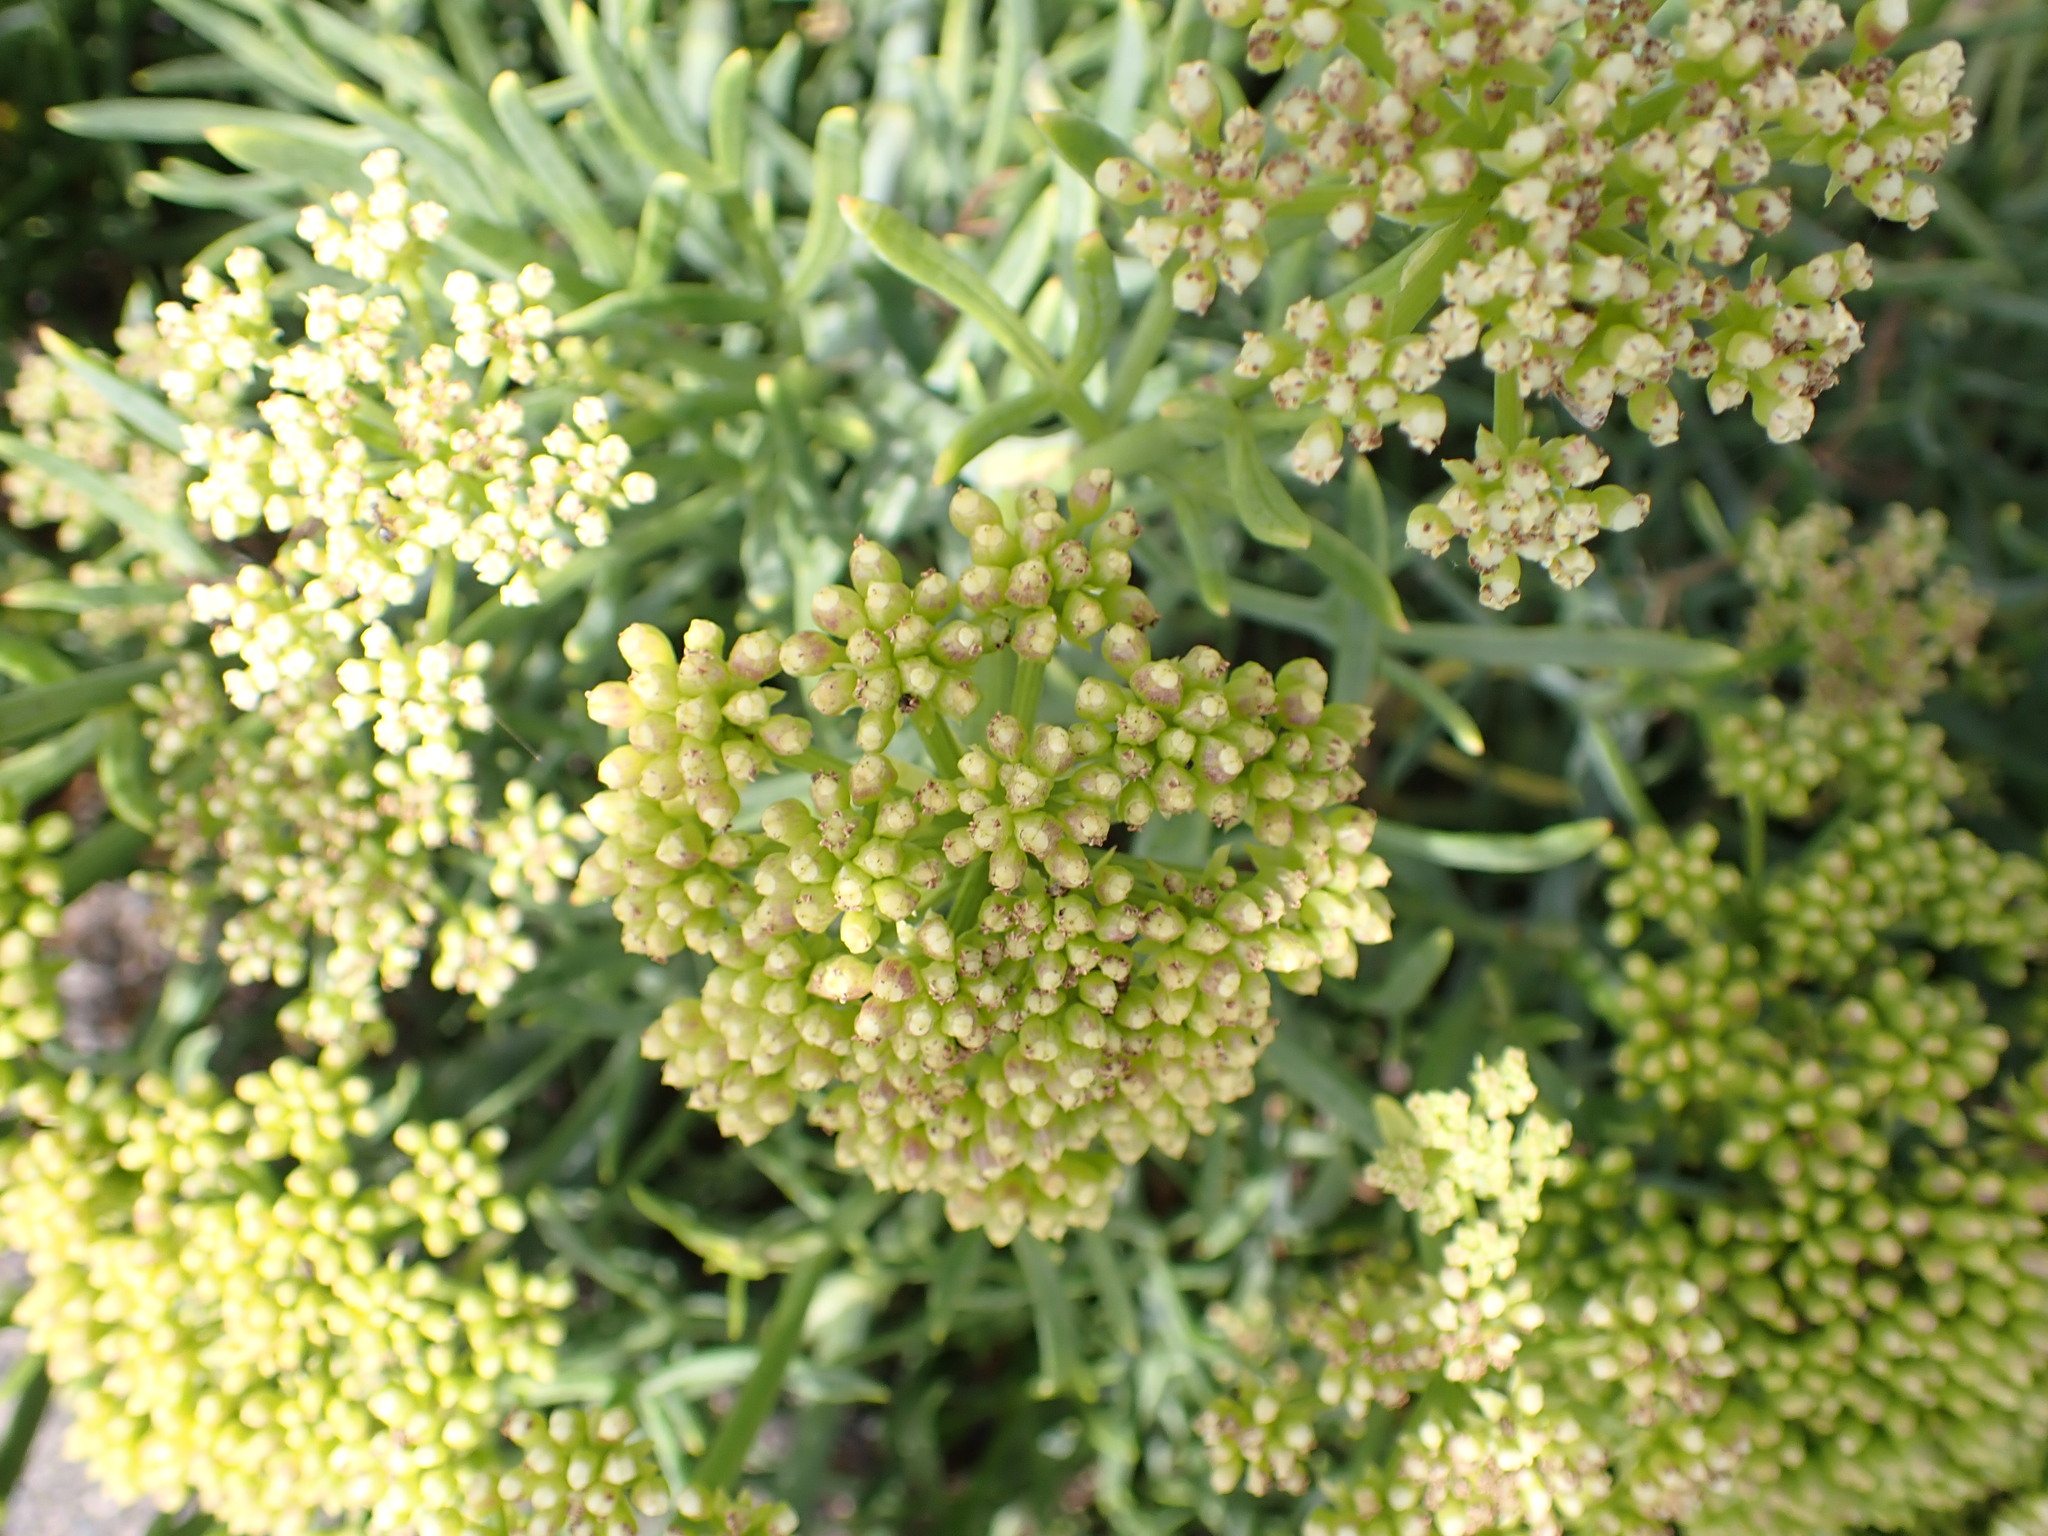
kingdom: Plantae
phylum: Tracheophyta
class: Magnoliopsida
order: Apiales
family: Apiaceae
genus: Crithmum
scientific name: Crithmum maritimum
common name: Rock samphire
